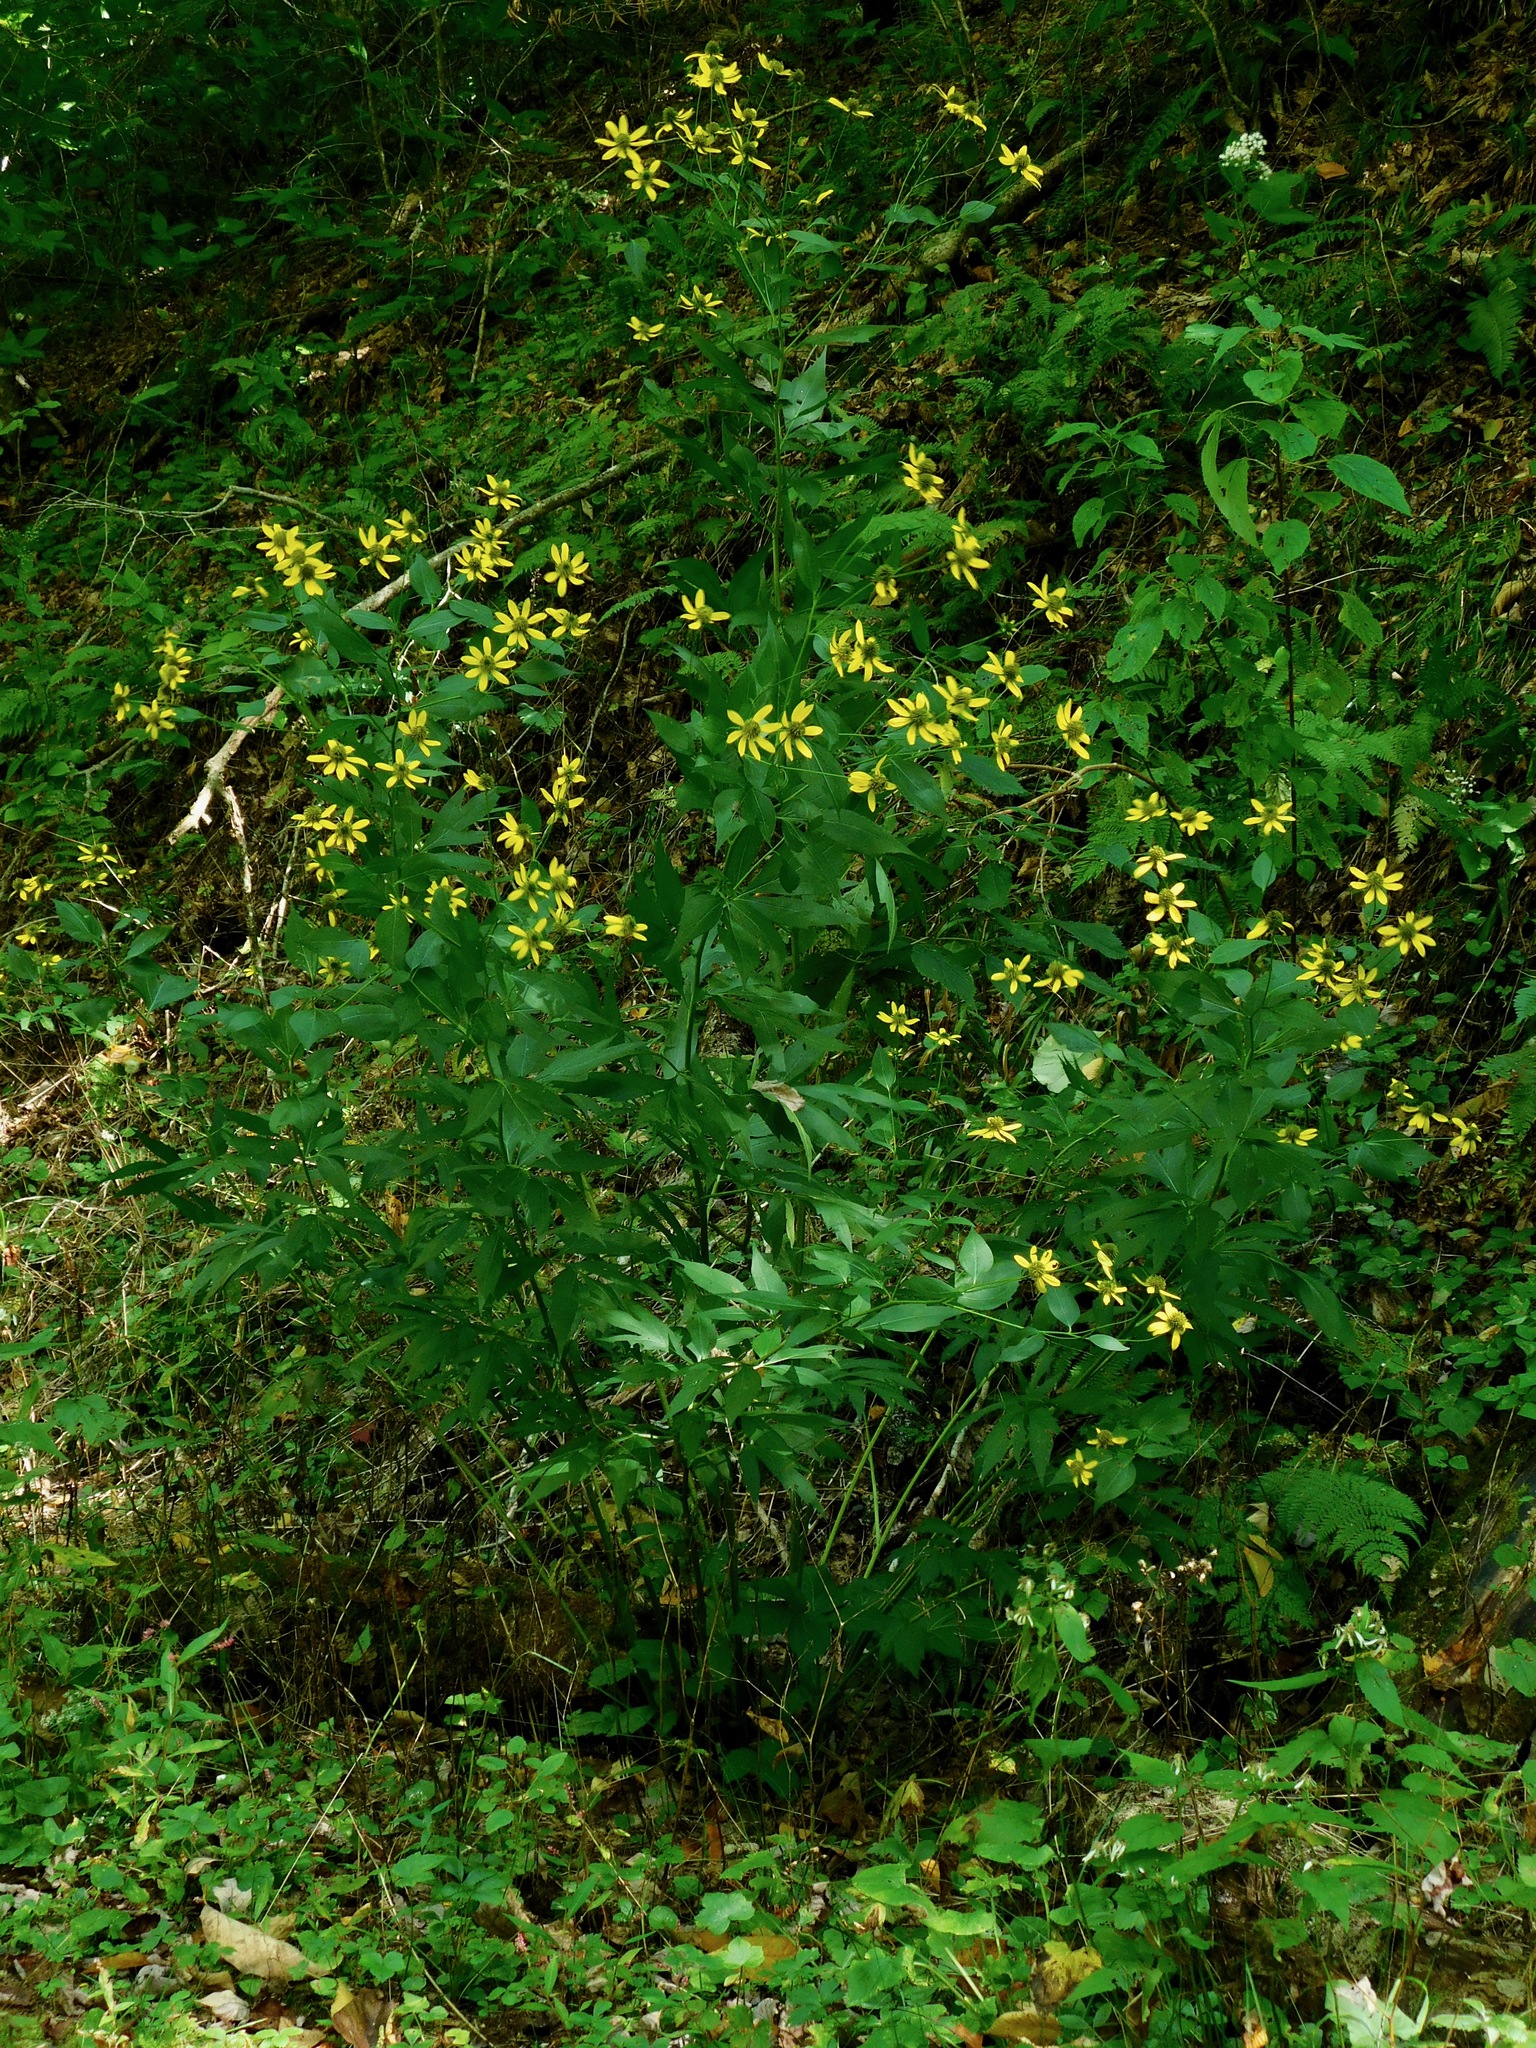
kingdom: Plantae
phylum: Tracheophyta
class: Magnoliopsida
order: Asterales
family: Asteraceae
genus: Rudbeckia
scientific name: Rudbeckia laciniata
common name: Coneflower
